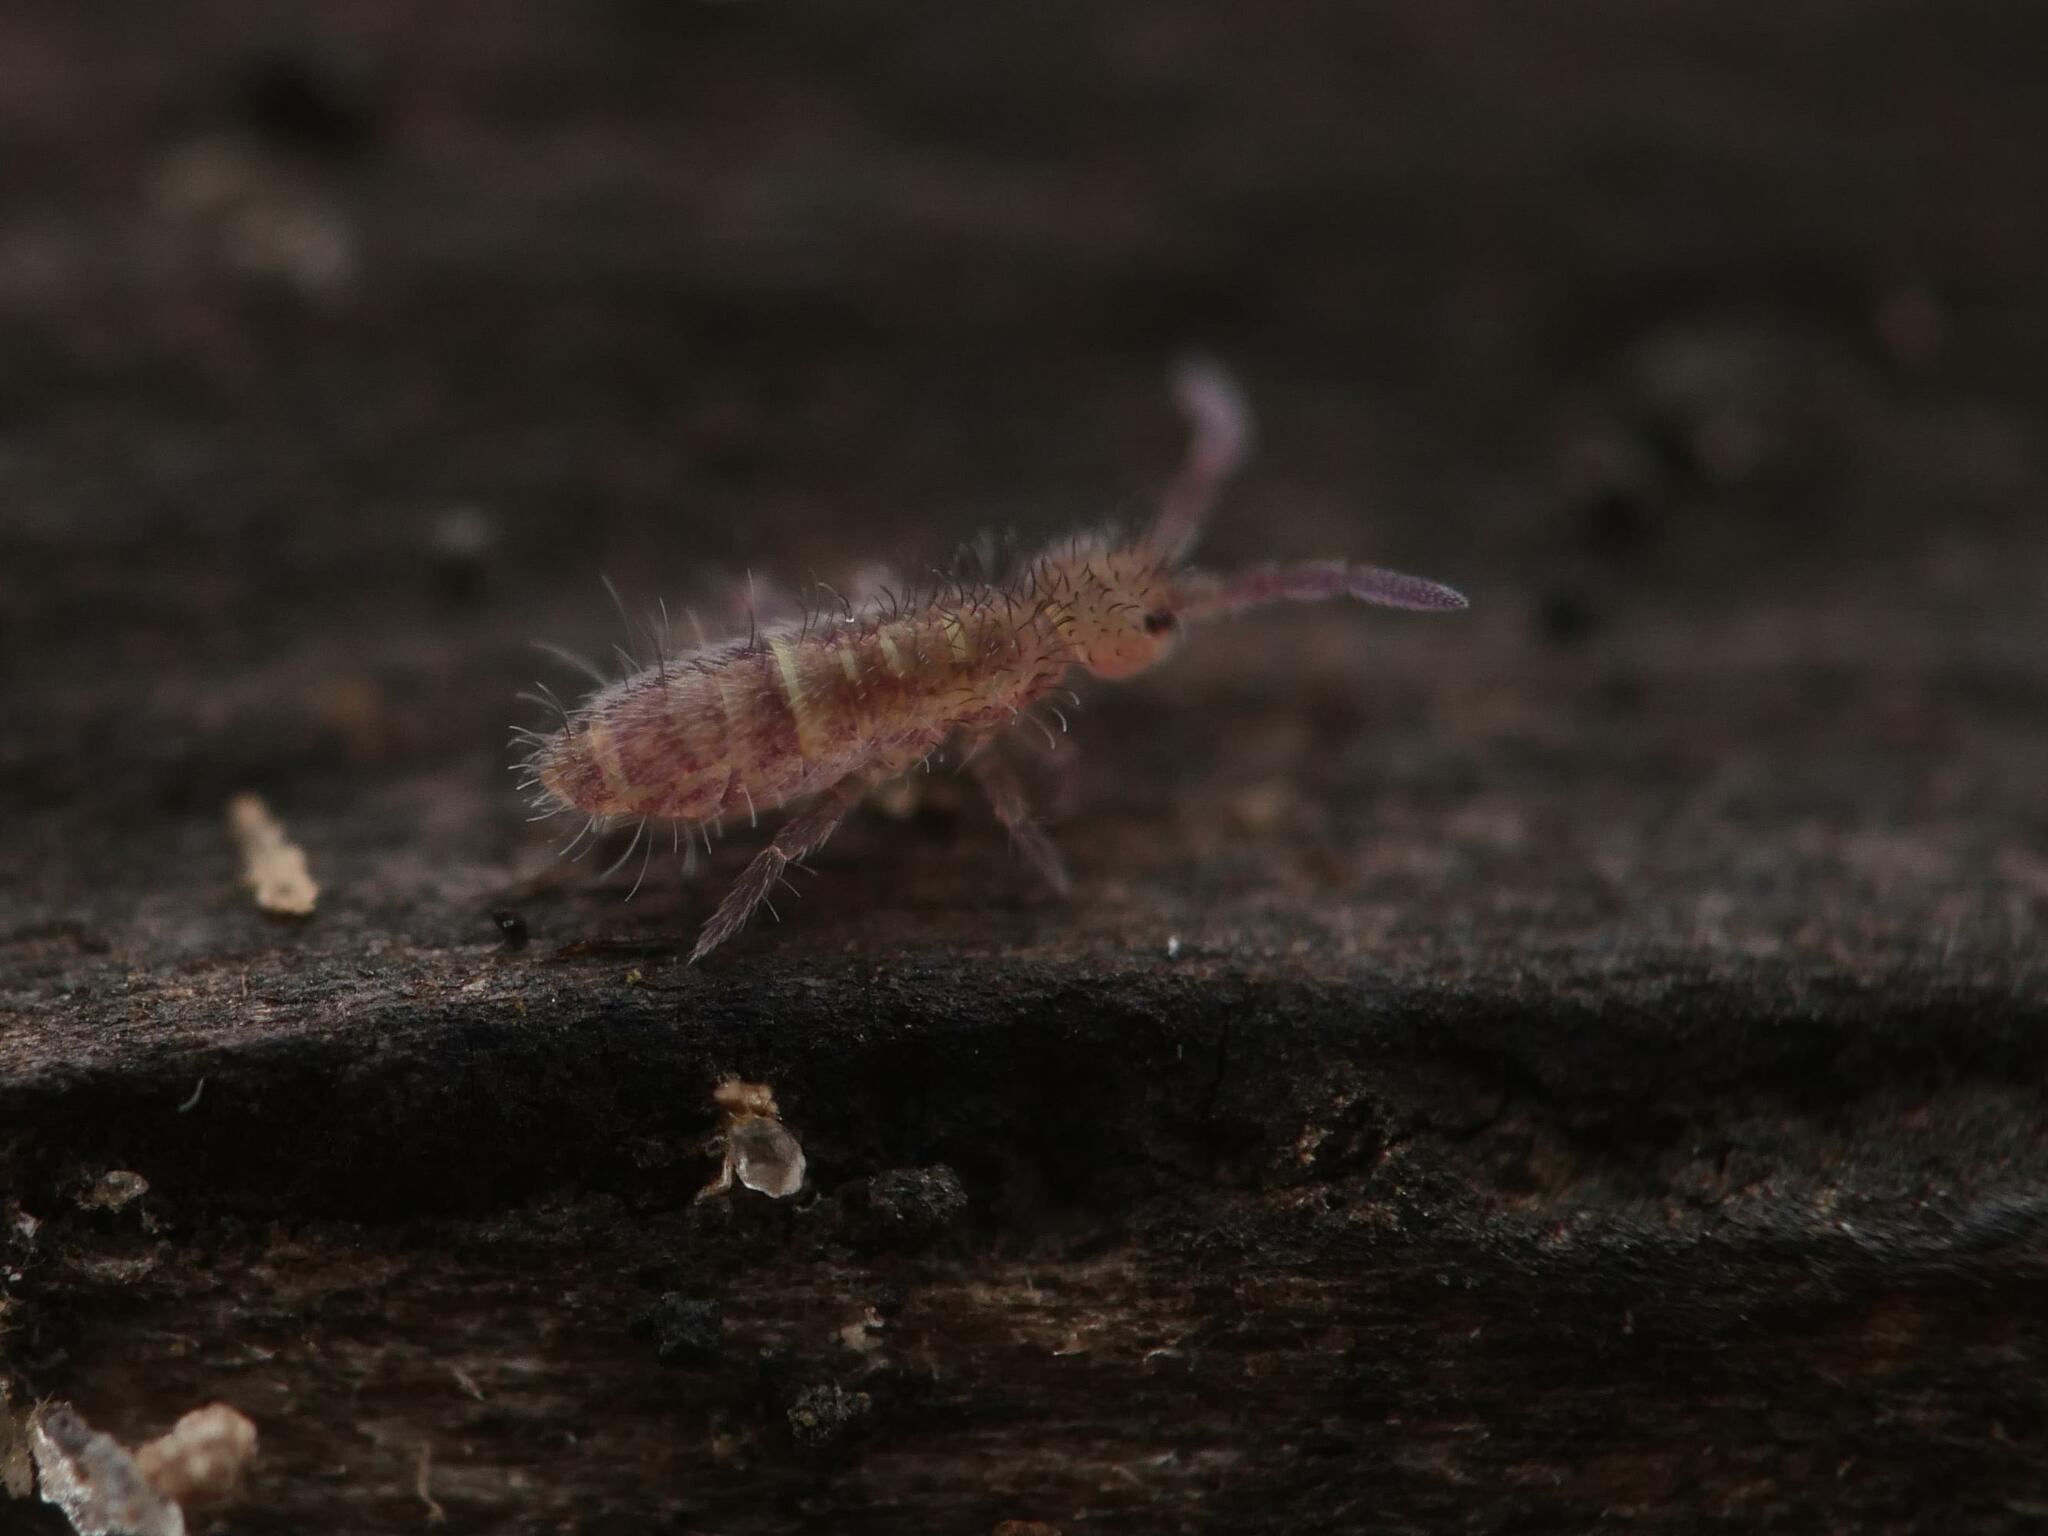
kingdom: Animalia
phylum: Arthropoda
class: Collembola
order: Entomobryomorpha
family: Orchesellidae
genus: Orchesella
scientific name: Orchesella cincta
